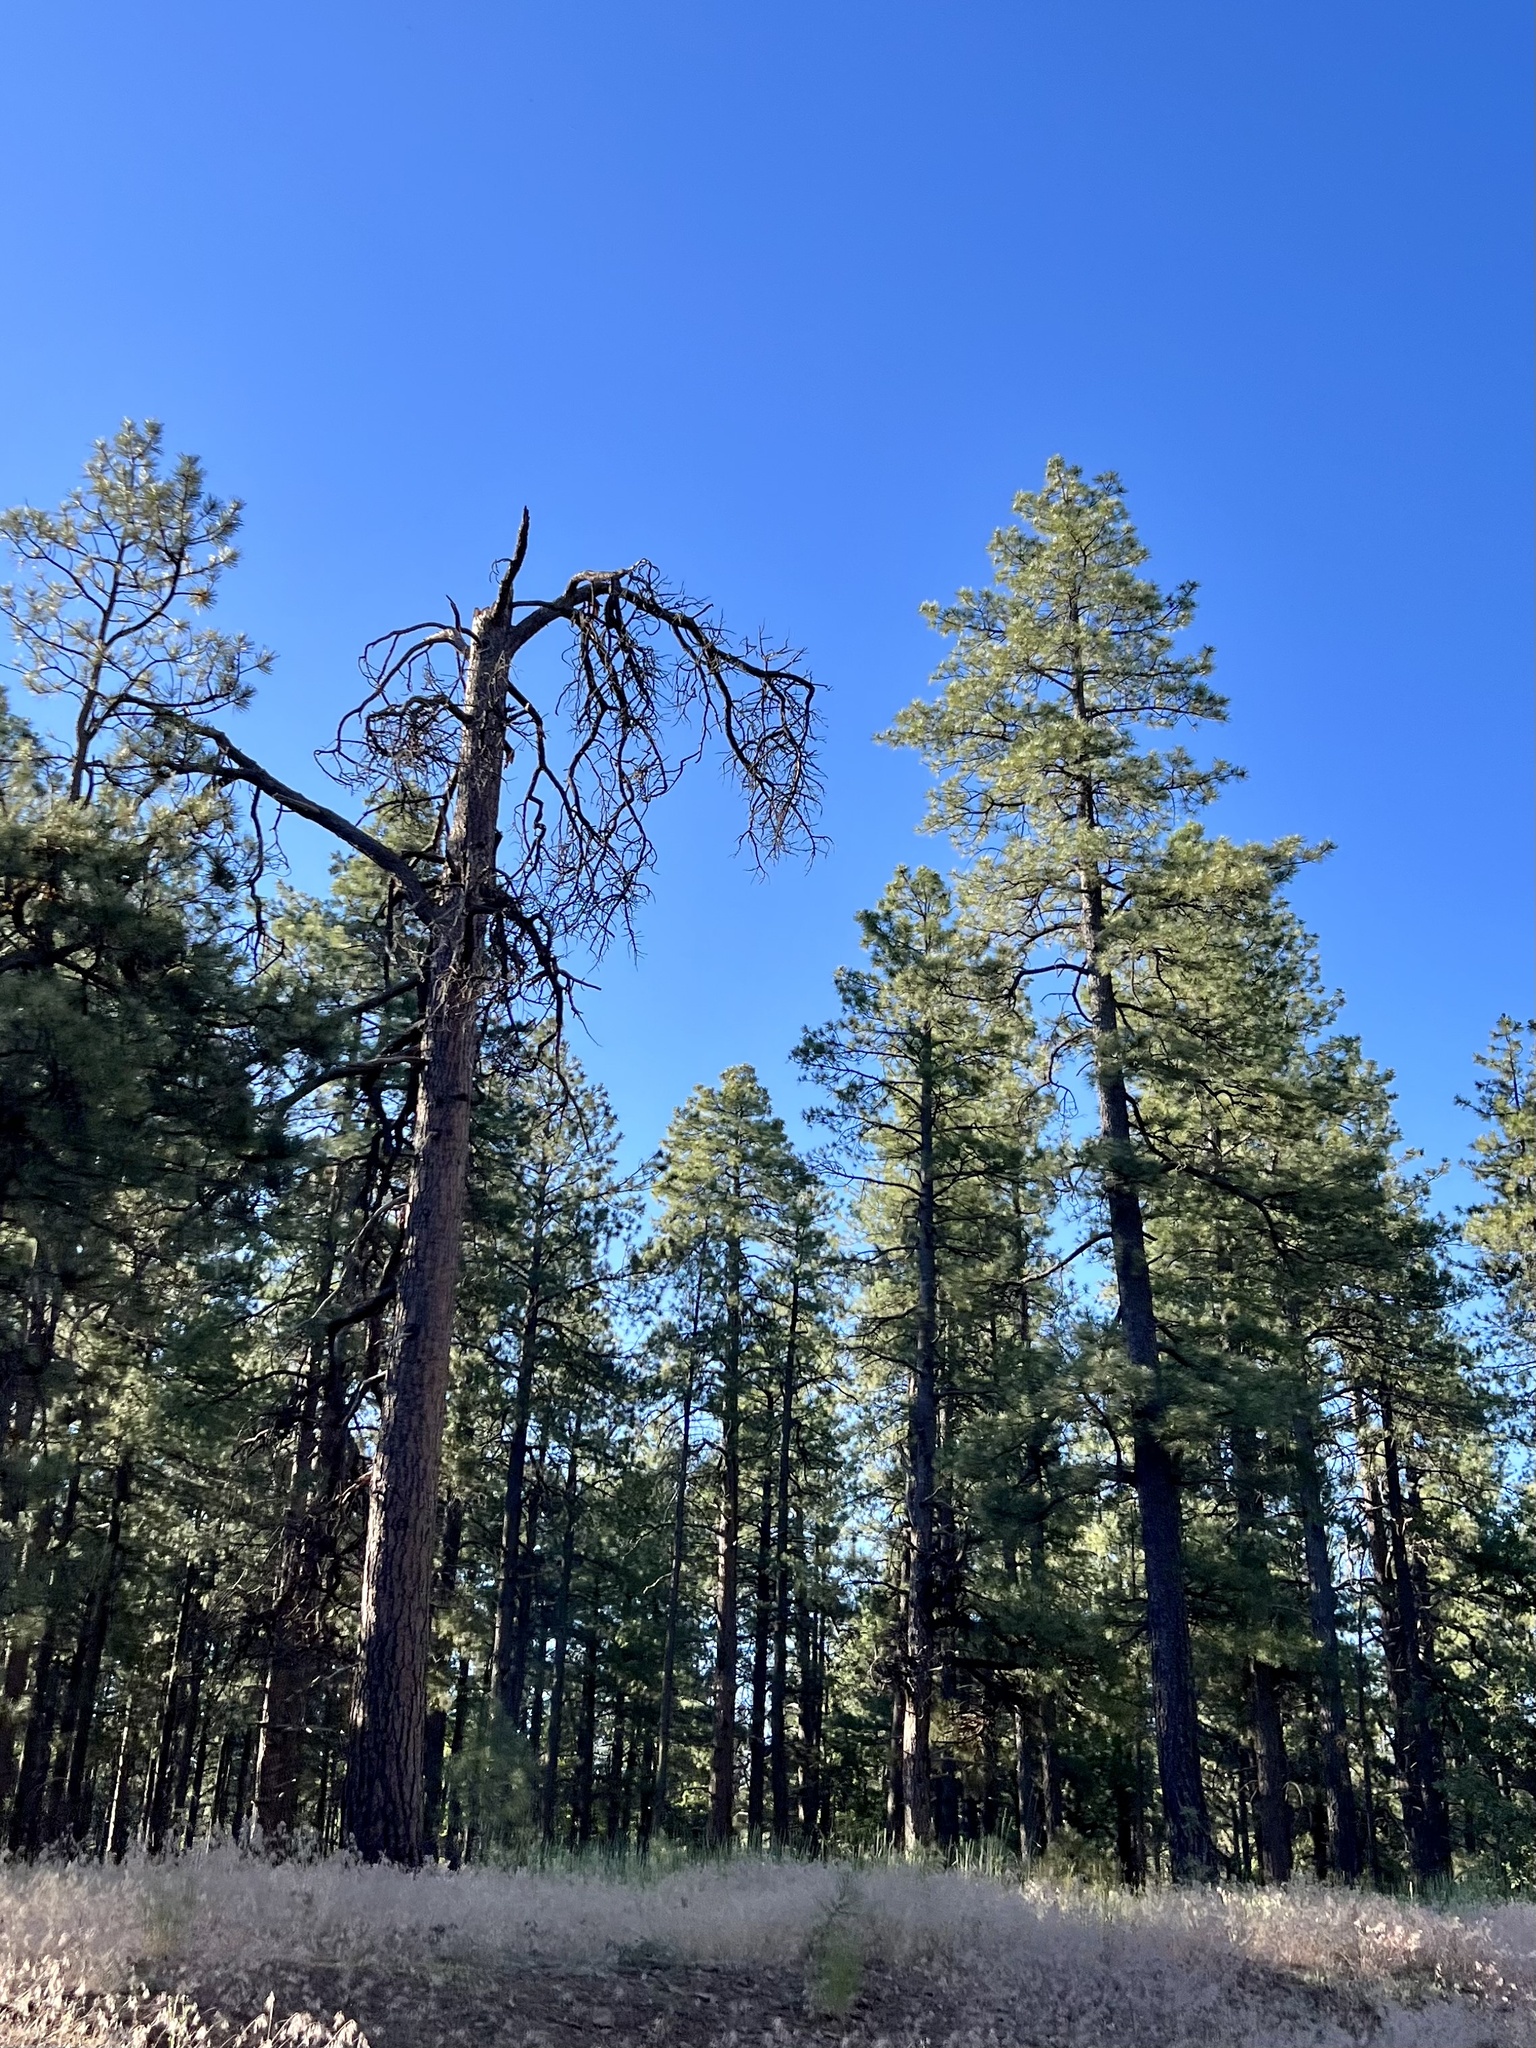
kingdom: Plantae
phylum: Tracheophyta
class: Pinopsida
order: Pinales
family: Pinaceae
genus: Pinus
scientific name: Pinus ponderosa
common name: Western yellow-pine
